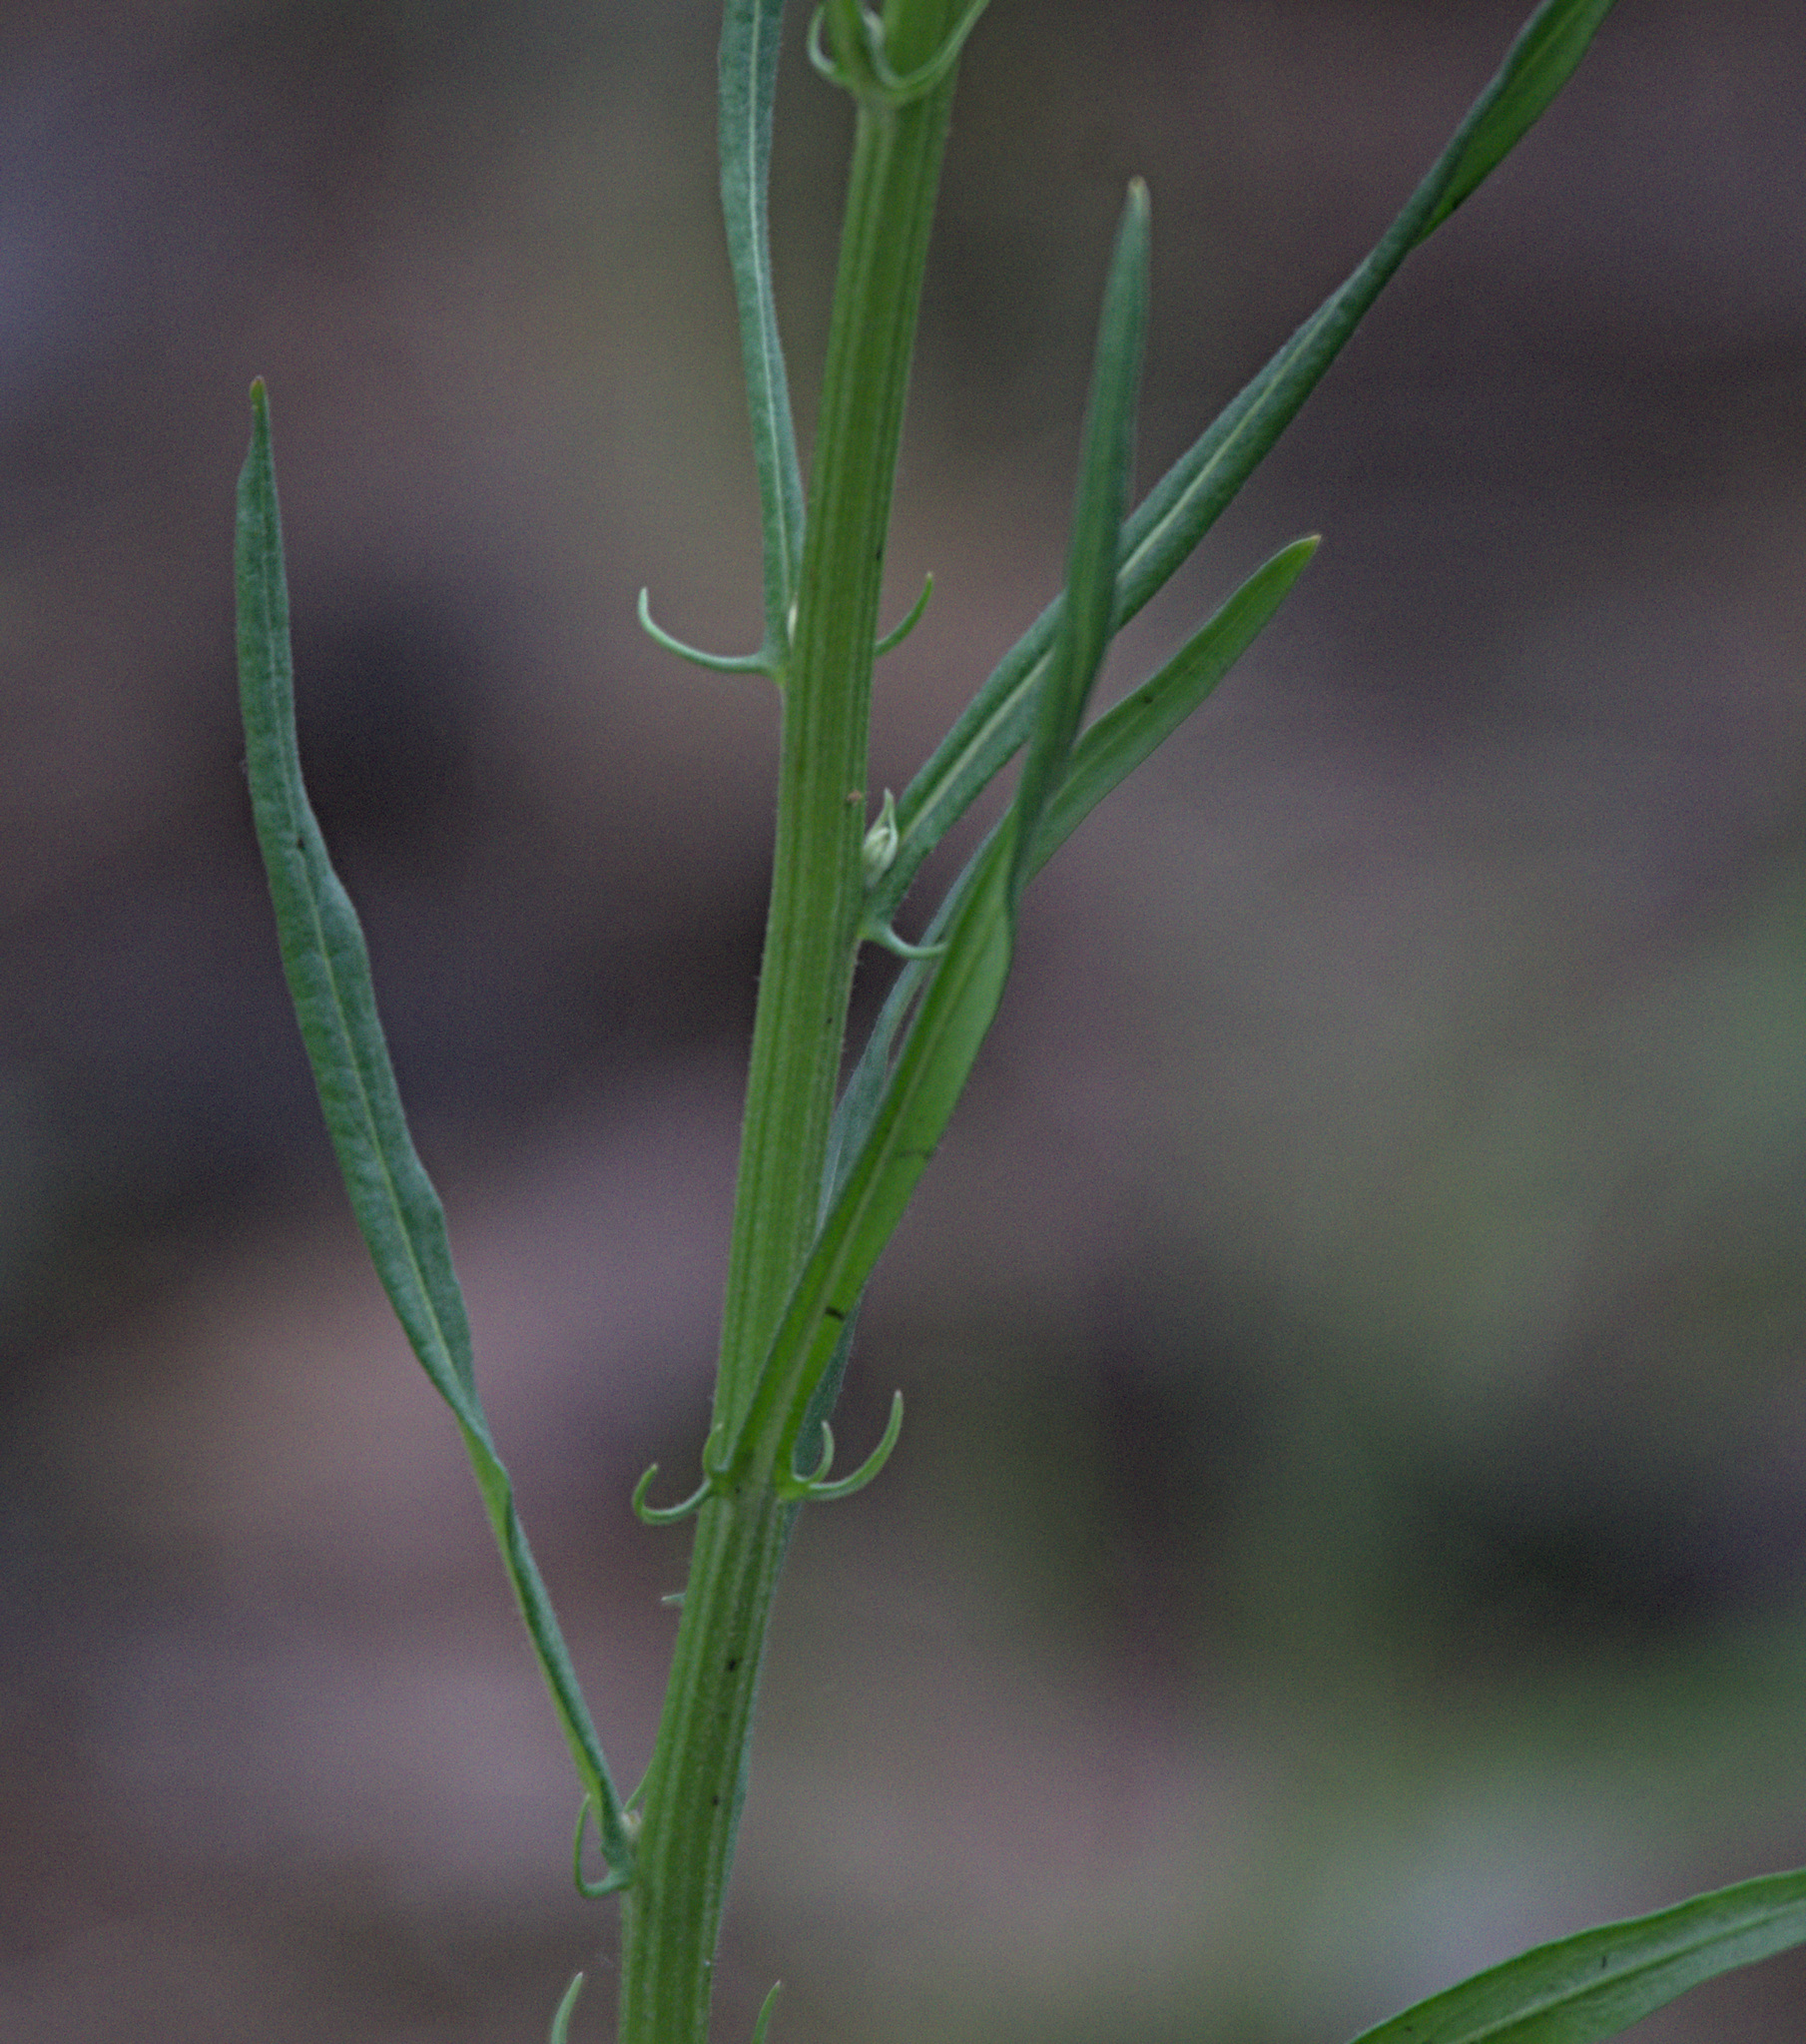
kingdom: Plantae
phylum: Tracheophyta
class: Magnoliopsida
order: Asterales
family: Asteraceae
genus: Crepis
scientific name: Crepis tectorum
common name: Narrow-leaved hawk's-beard
